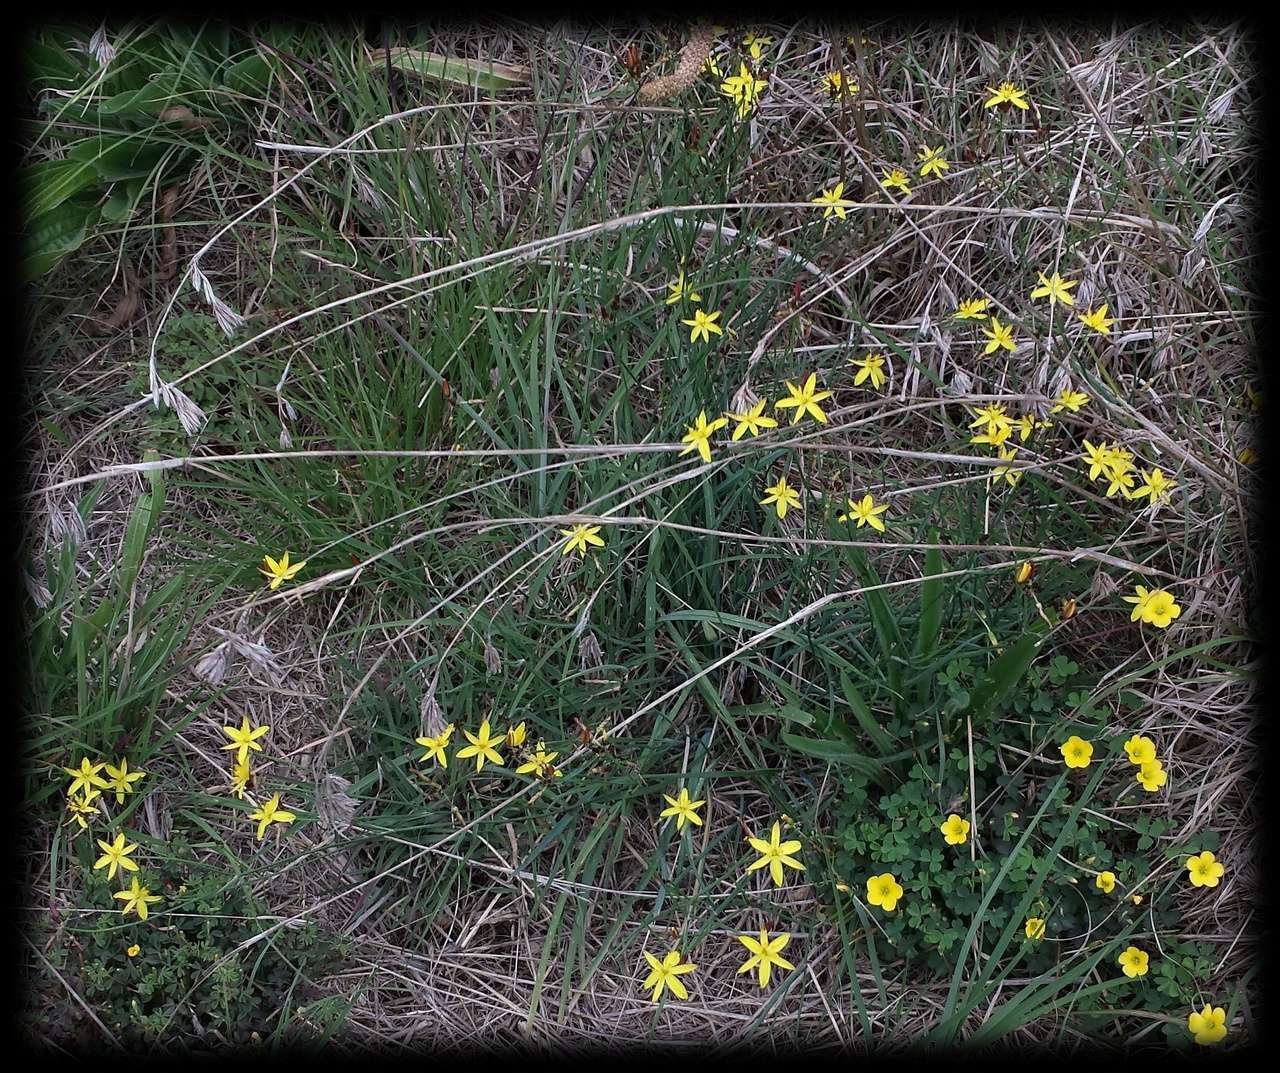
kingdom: Plantae
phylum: Tracheophyta
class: Liliopsida
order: Asparagales
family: Asphodelaceae
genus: Tricoryne
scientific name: Tricoryne elatior
